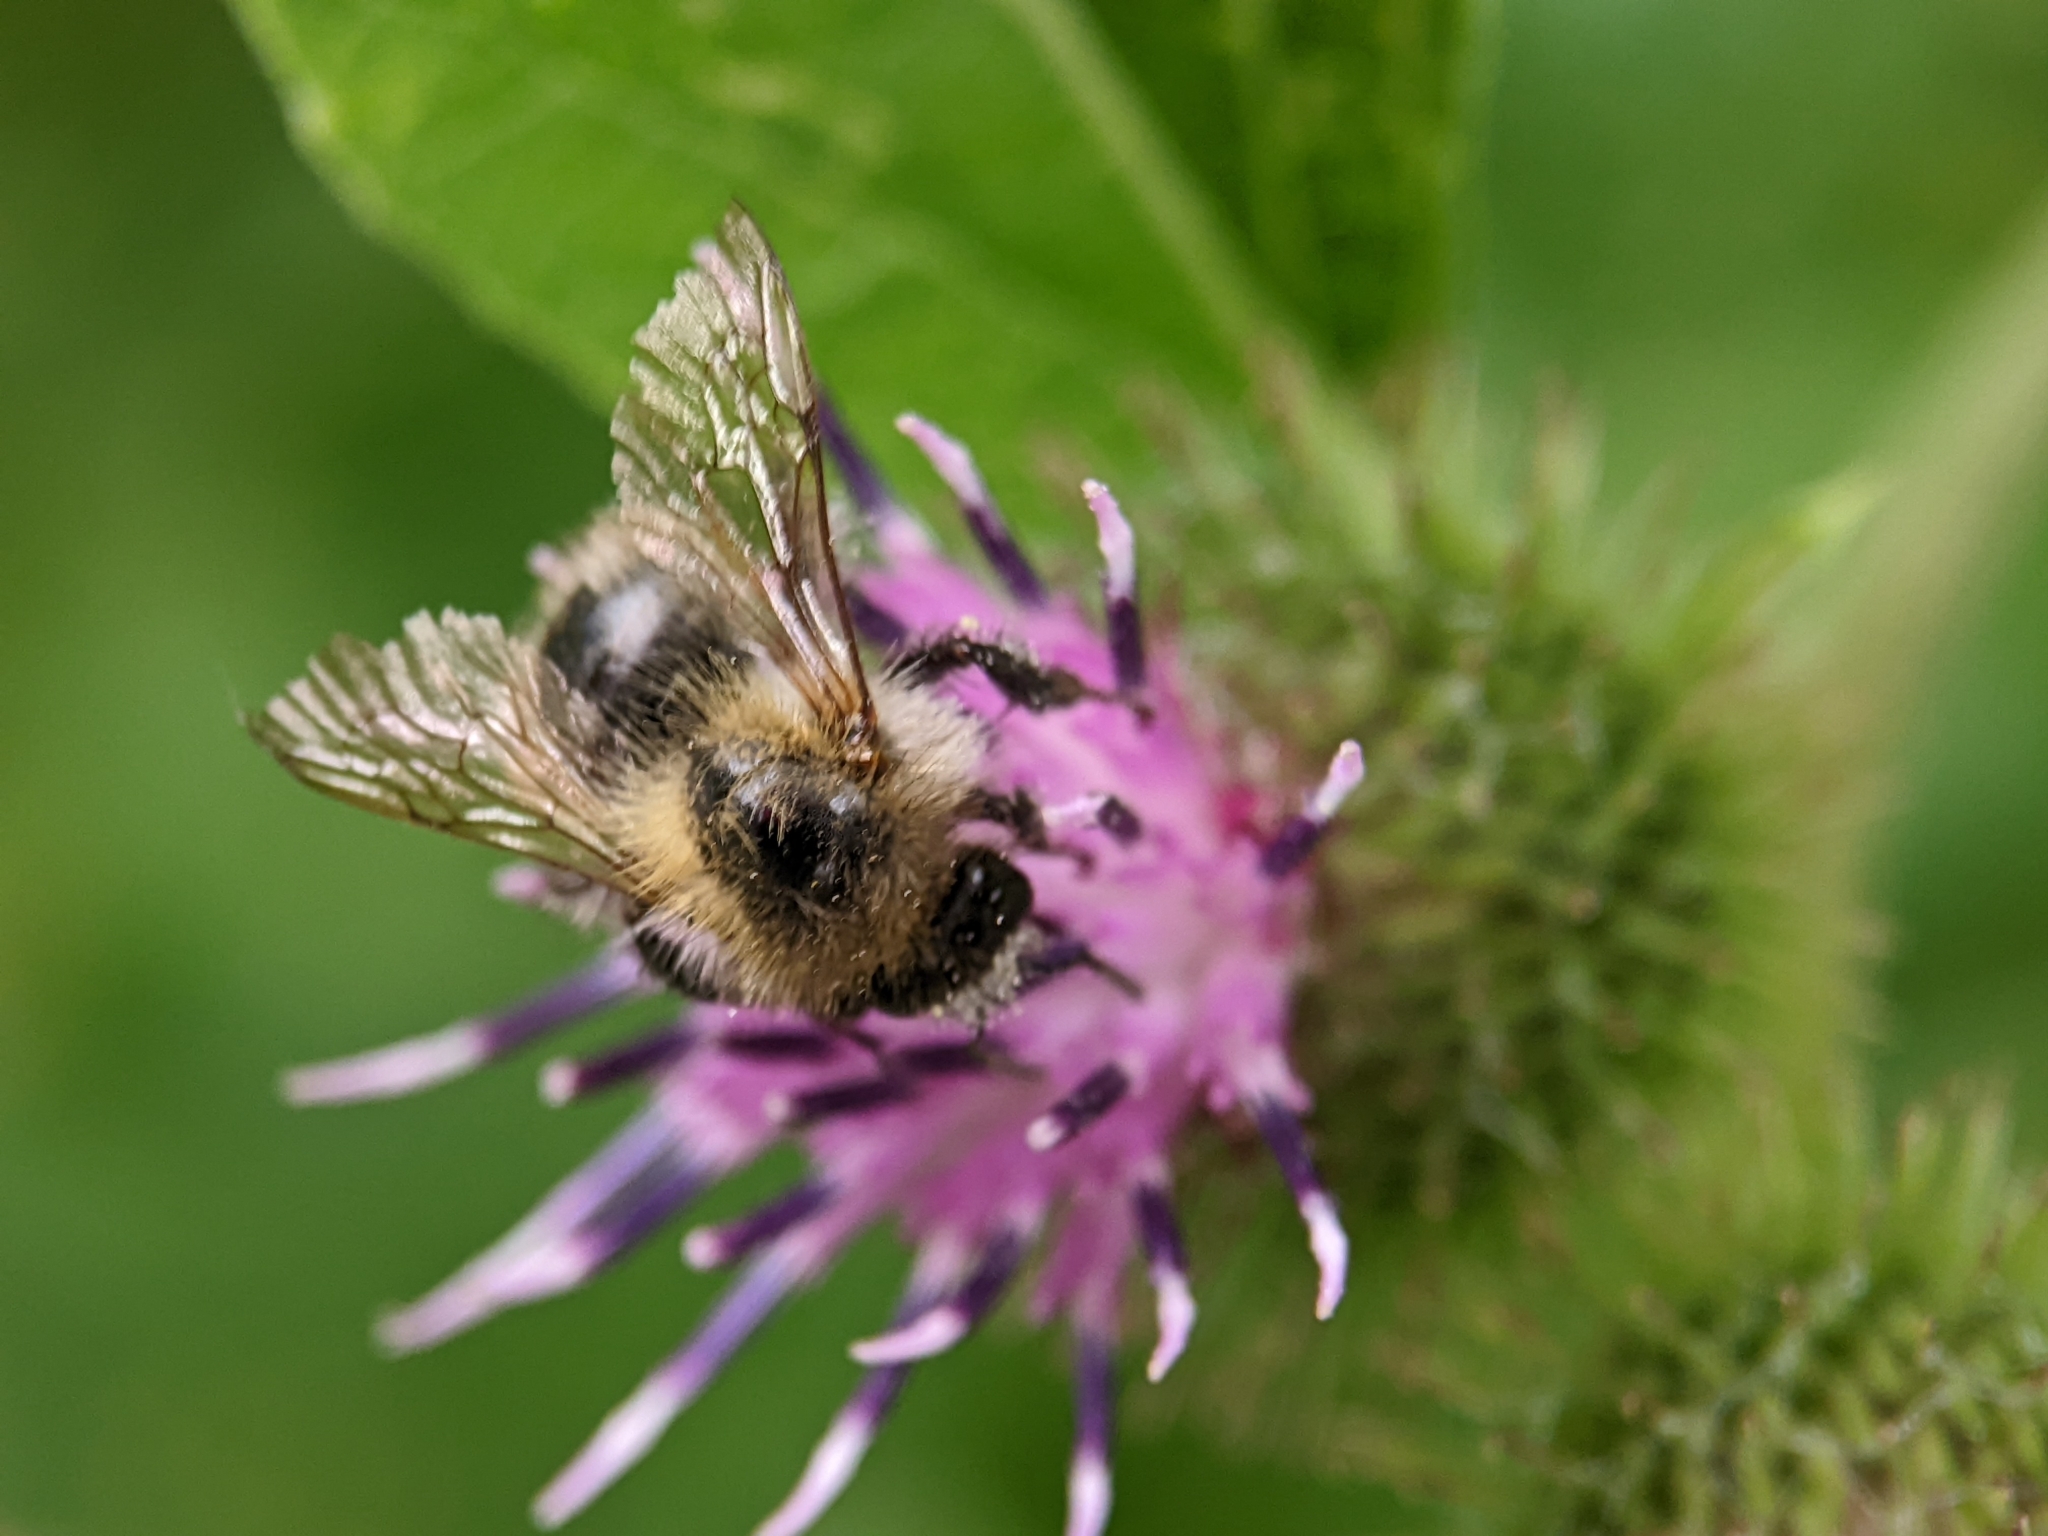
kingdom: Animalia
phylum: Arthropoda
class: Insecta
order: Hymenoptera
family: Apidae
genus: Bombus
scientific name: Bombus pascuorum
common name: Common carder bee
